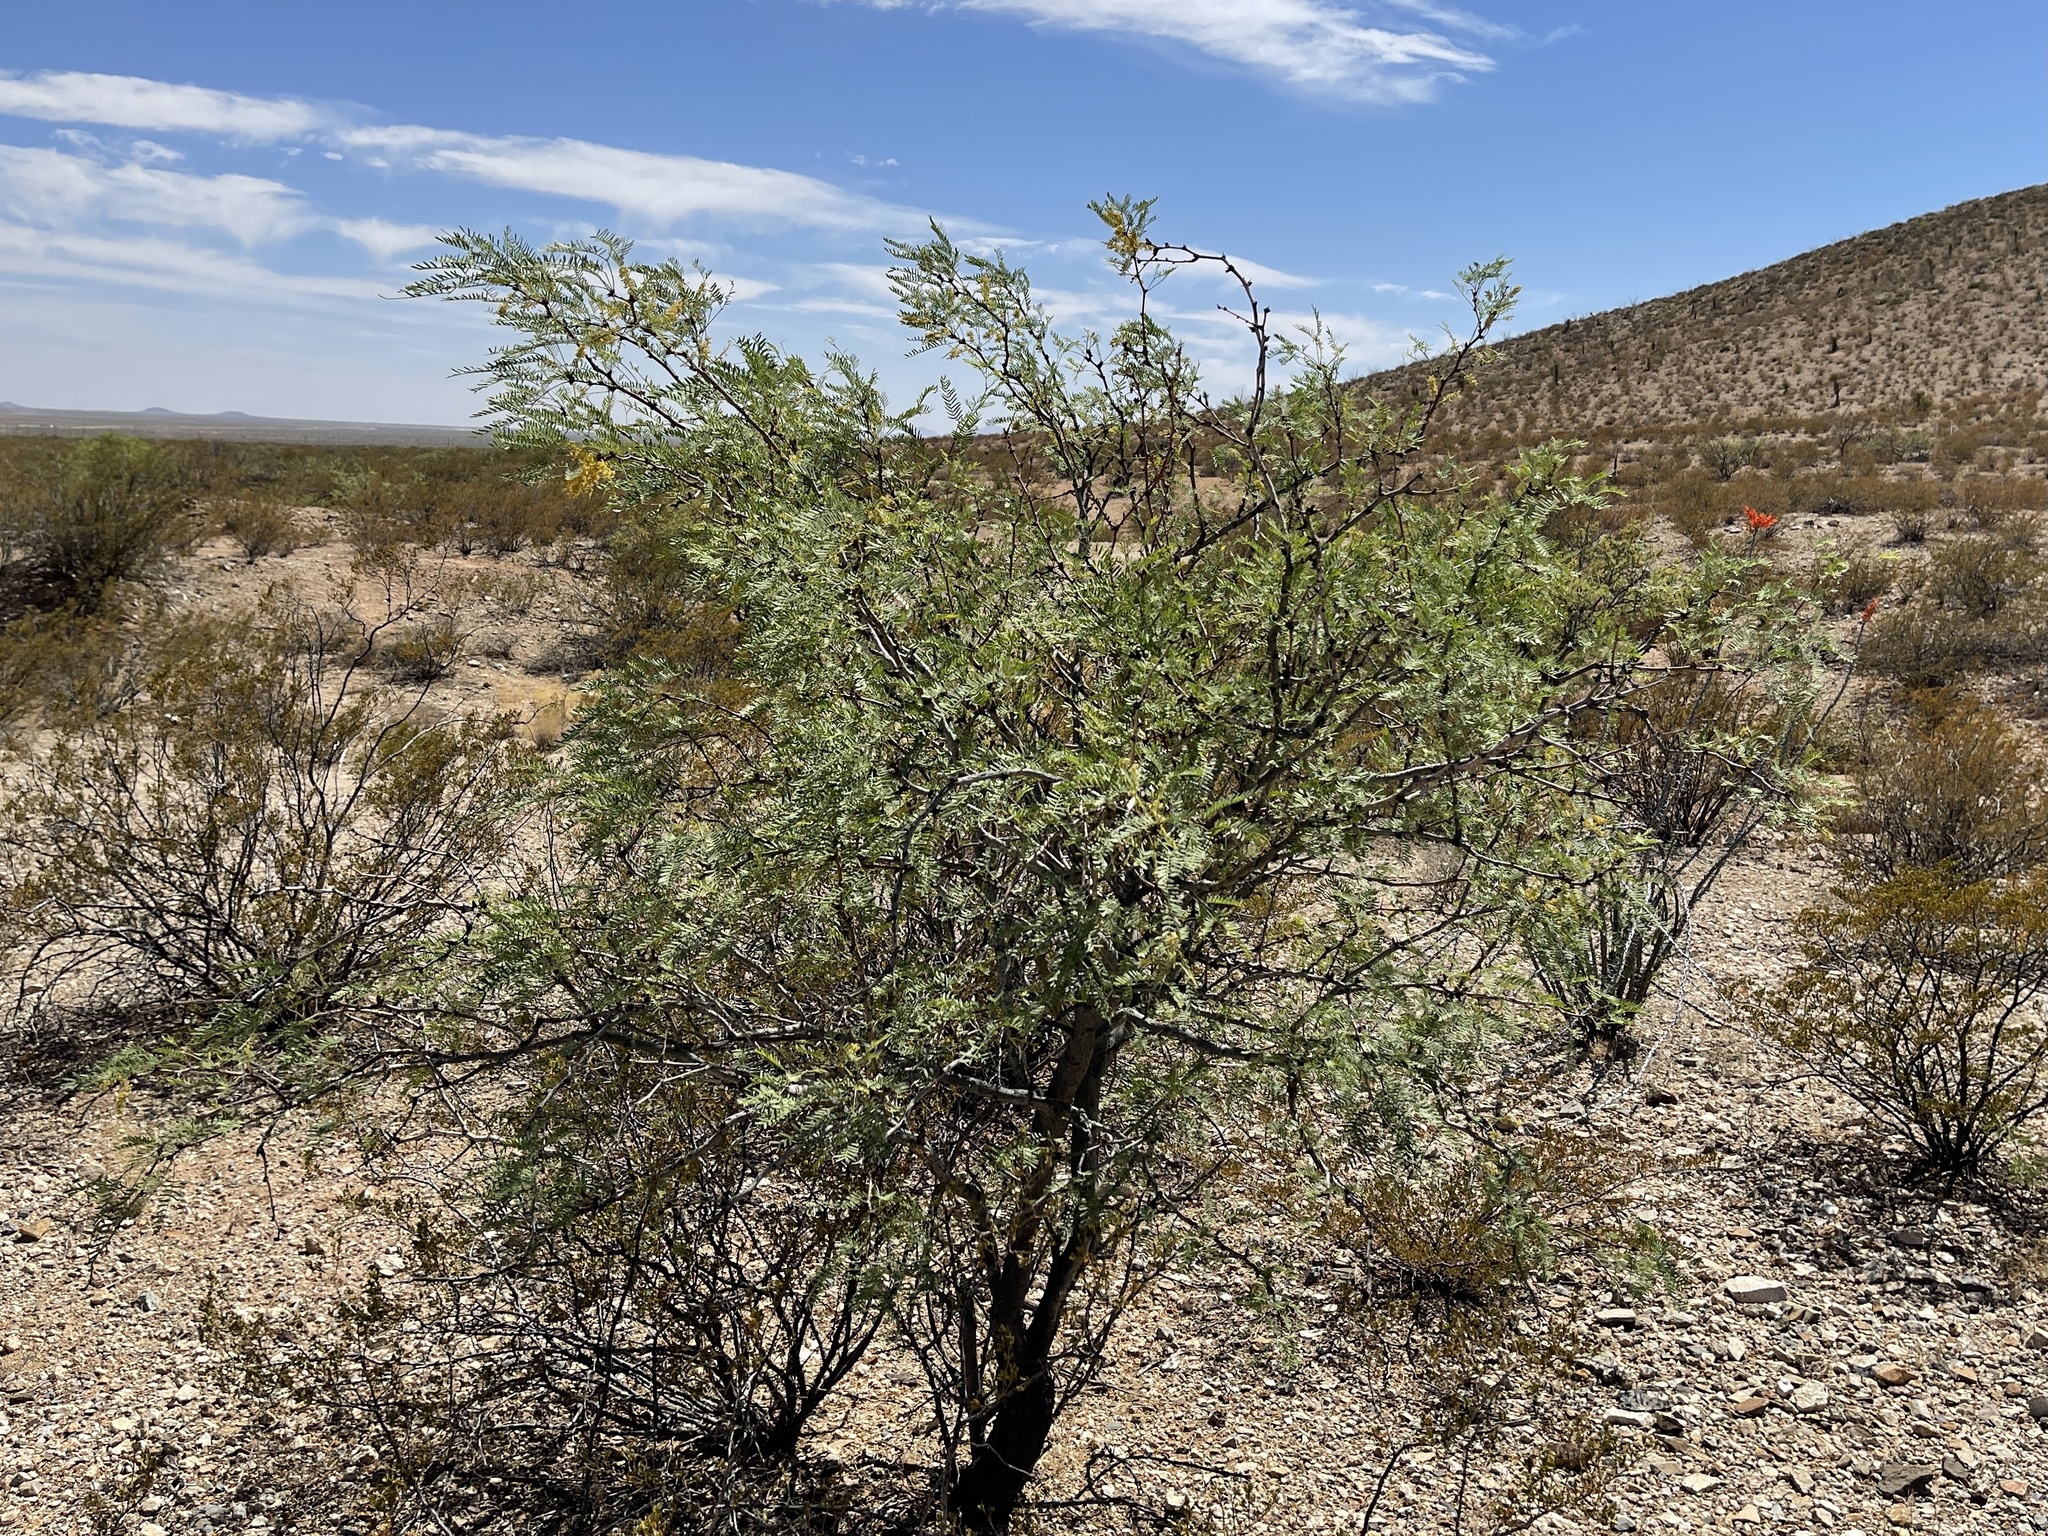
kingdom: Plantae
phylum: Tracheophyta
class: Magnoliopsida
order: Fabales
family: Fabaceae
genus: Prosopis
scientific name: Prosopis glandulosa
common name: Honey mesquite
